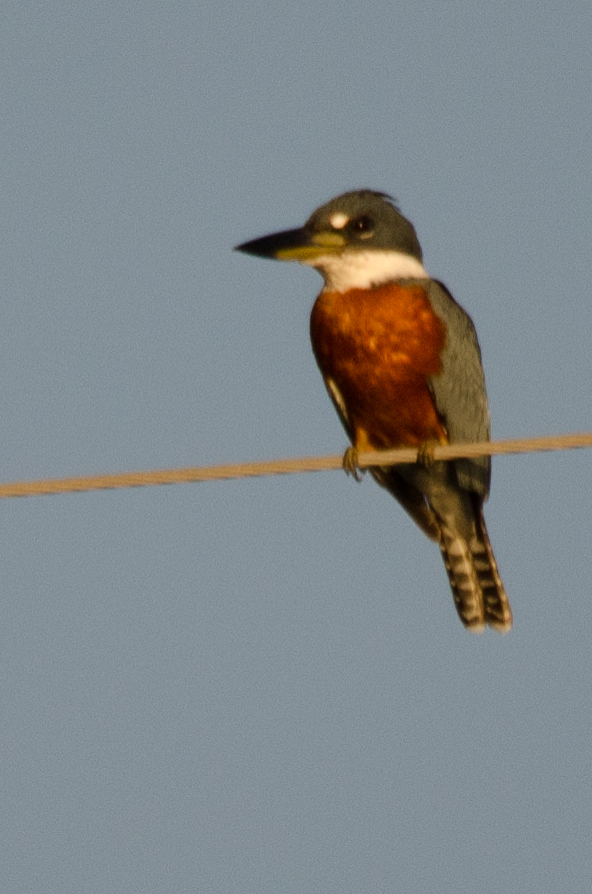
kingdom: Animalia
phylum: Chordata
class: Aves
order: Coraciiformes
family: Alcedinidae
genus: Megaceryle
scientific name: Megaceryle torquata
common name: Ringed kingfisher
